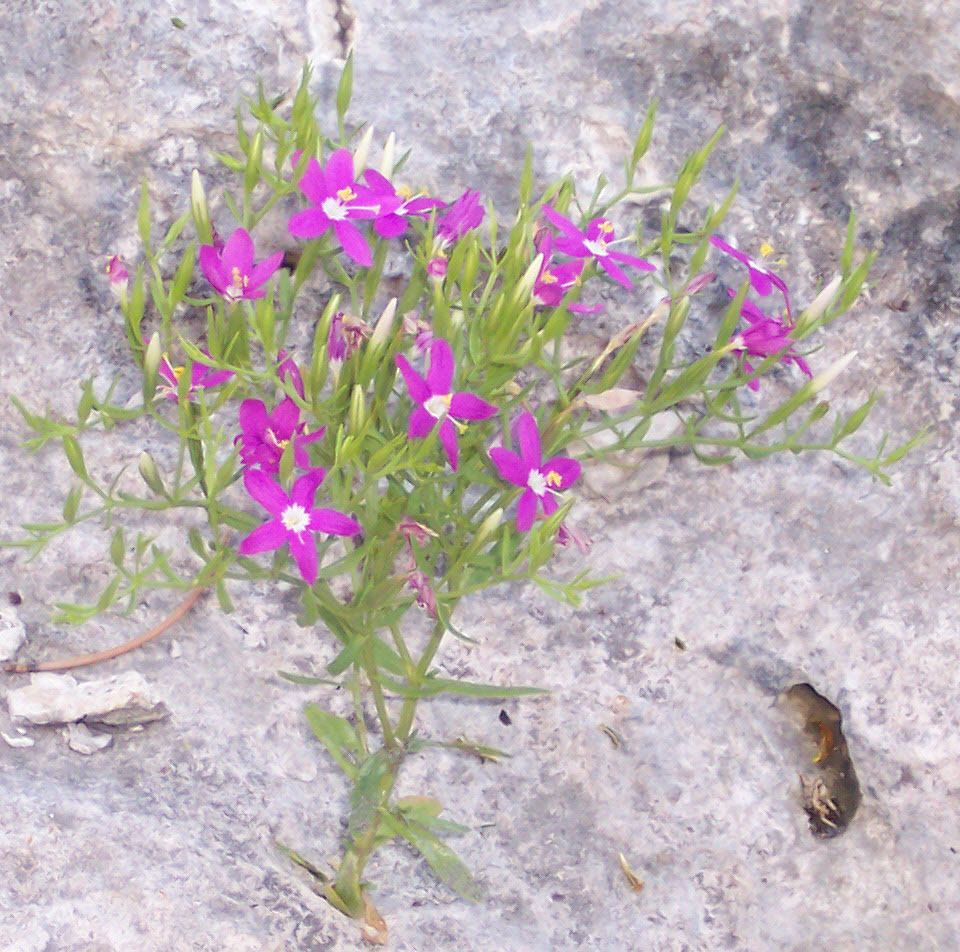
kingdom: Plantae
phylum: Tracheophyta
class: Magnoliopsida
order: Gentianales
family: Gentianaceae
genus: Zeltnera
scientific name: Zeltnera calycosa
